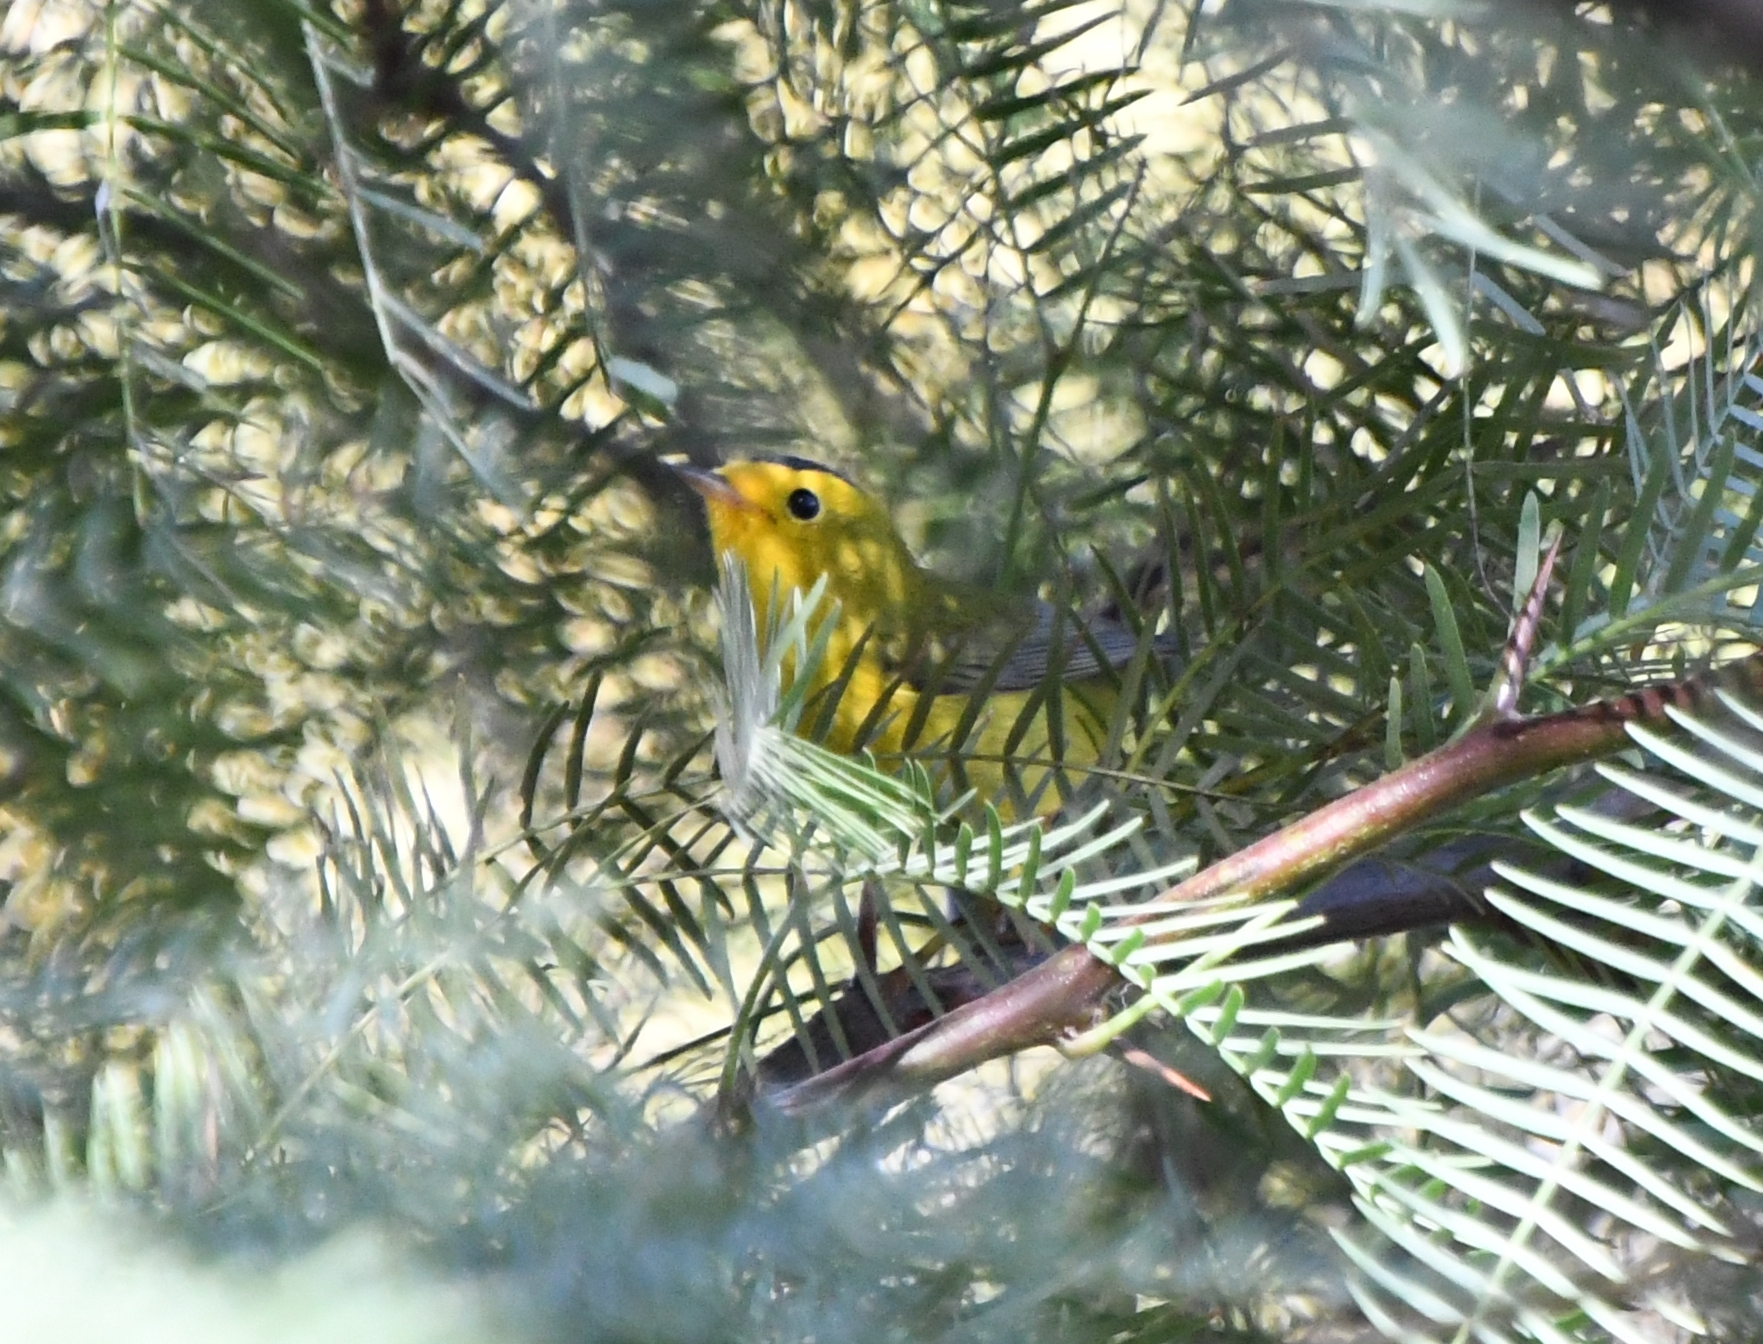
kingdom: Animalia
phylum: Chordata
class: Aves
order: Passeriformes
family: Parulidae
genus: Cardellina
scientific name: Cardellina pusilla
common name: Wilson's warbler
